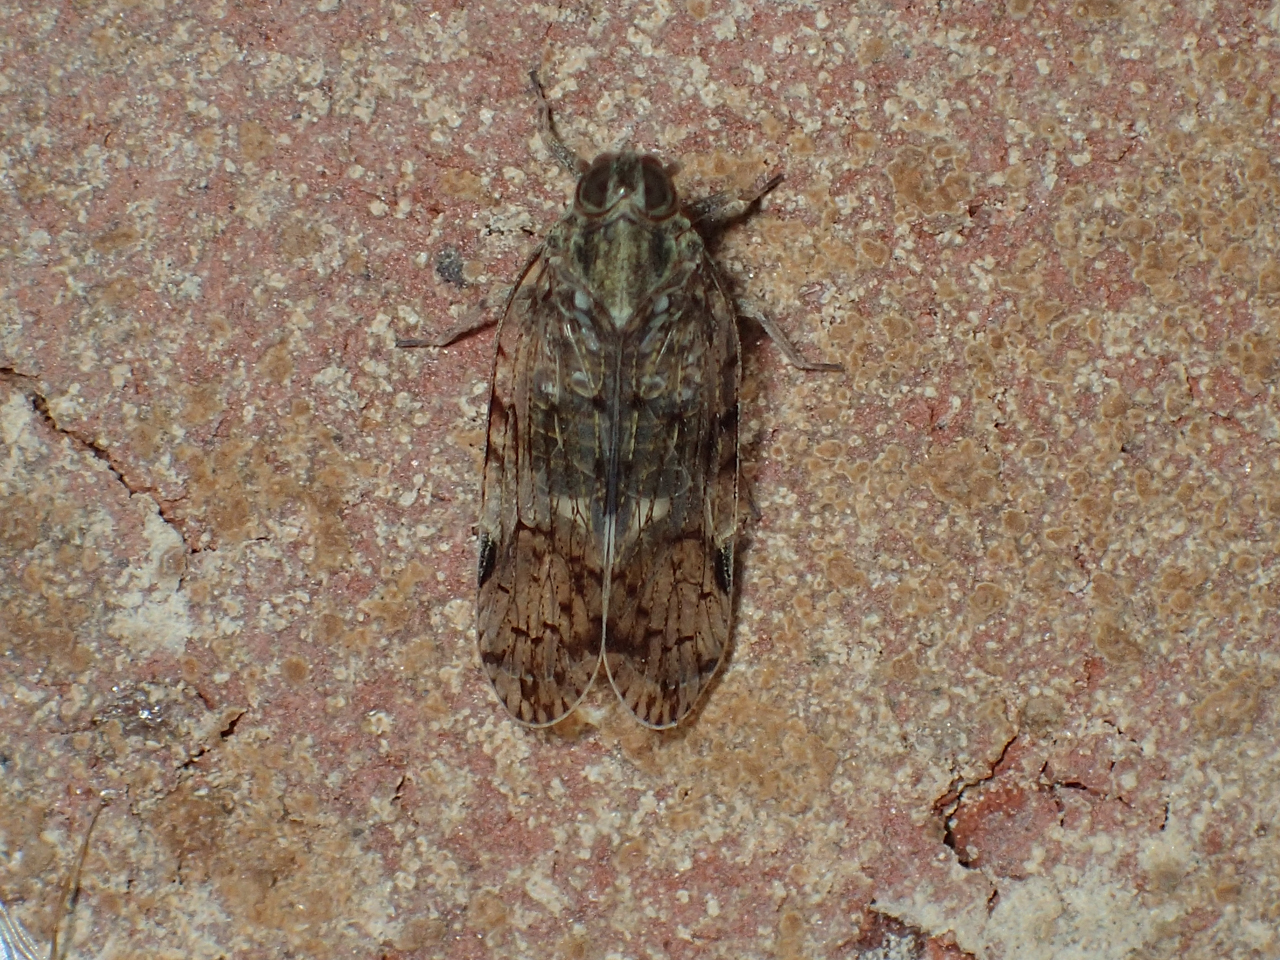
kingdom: Animalia
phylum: Arthropoda
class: Insecta
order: Hemiptera
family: Cixiidae
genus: Melanoliarus
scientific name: Melanoliarus placitus
